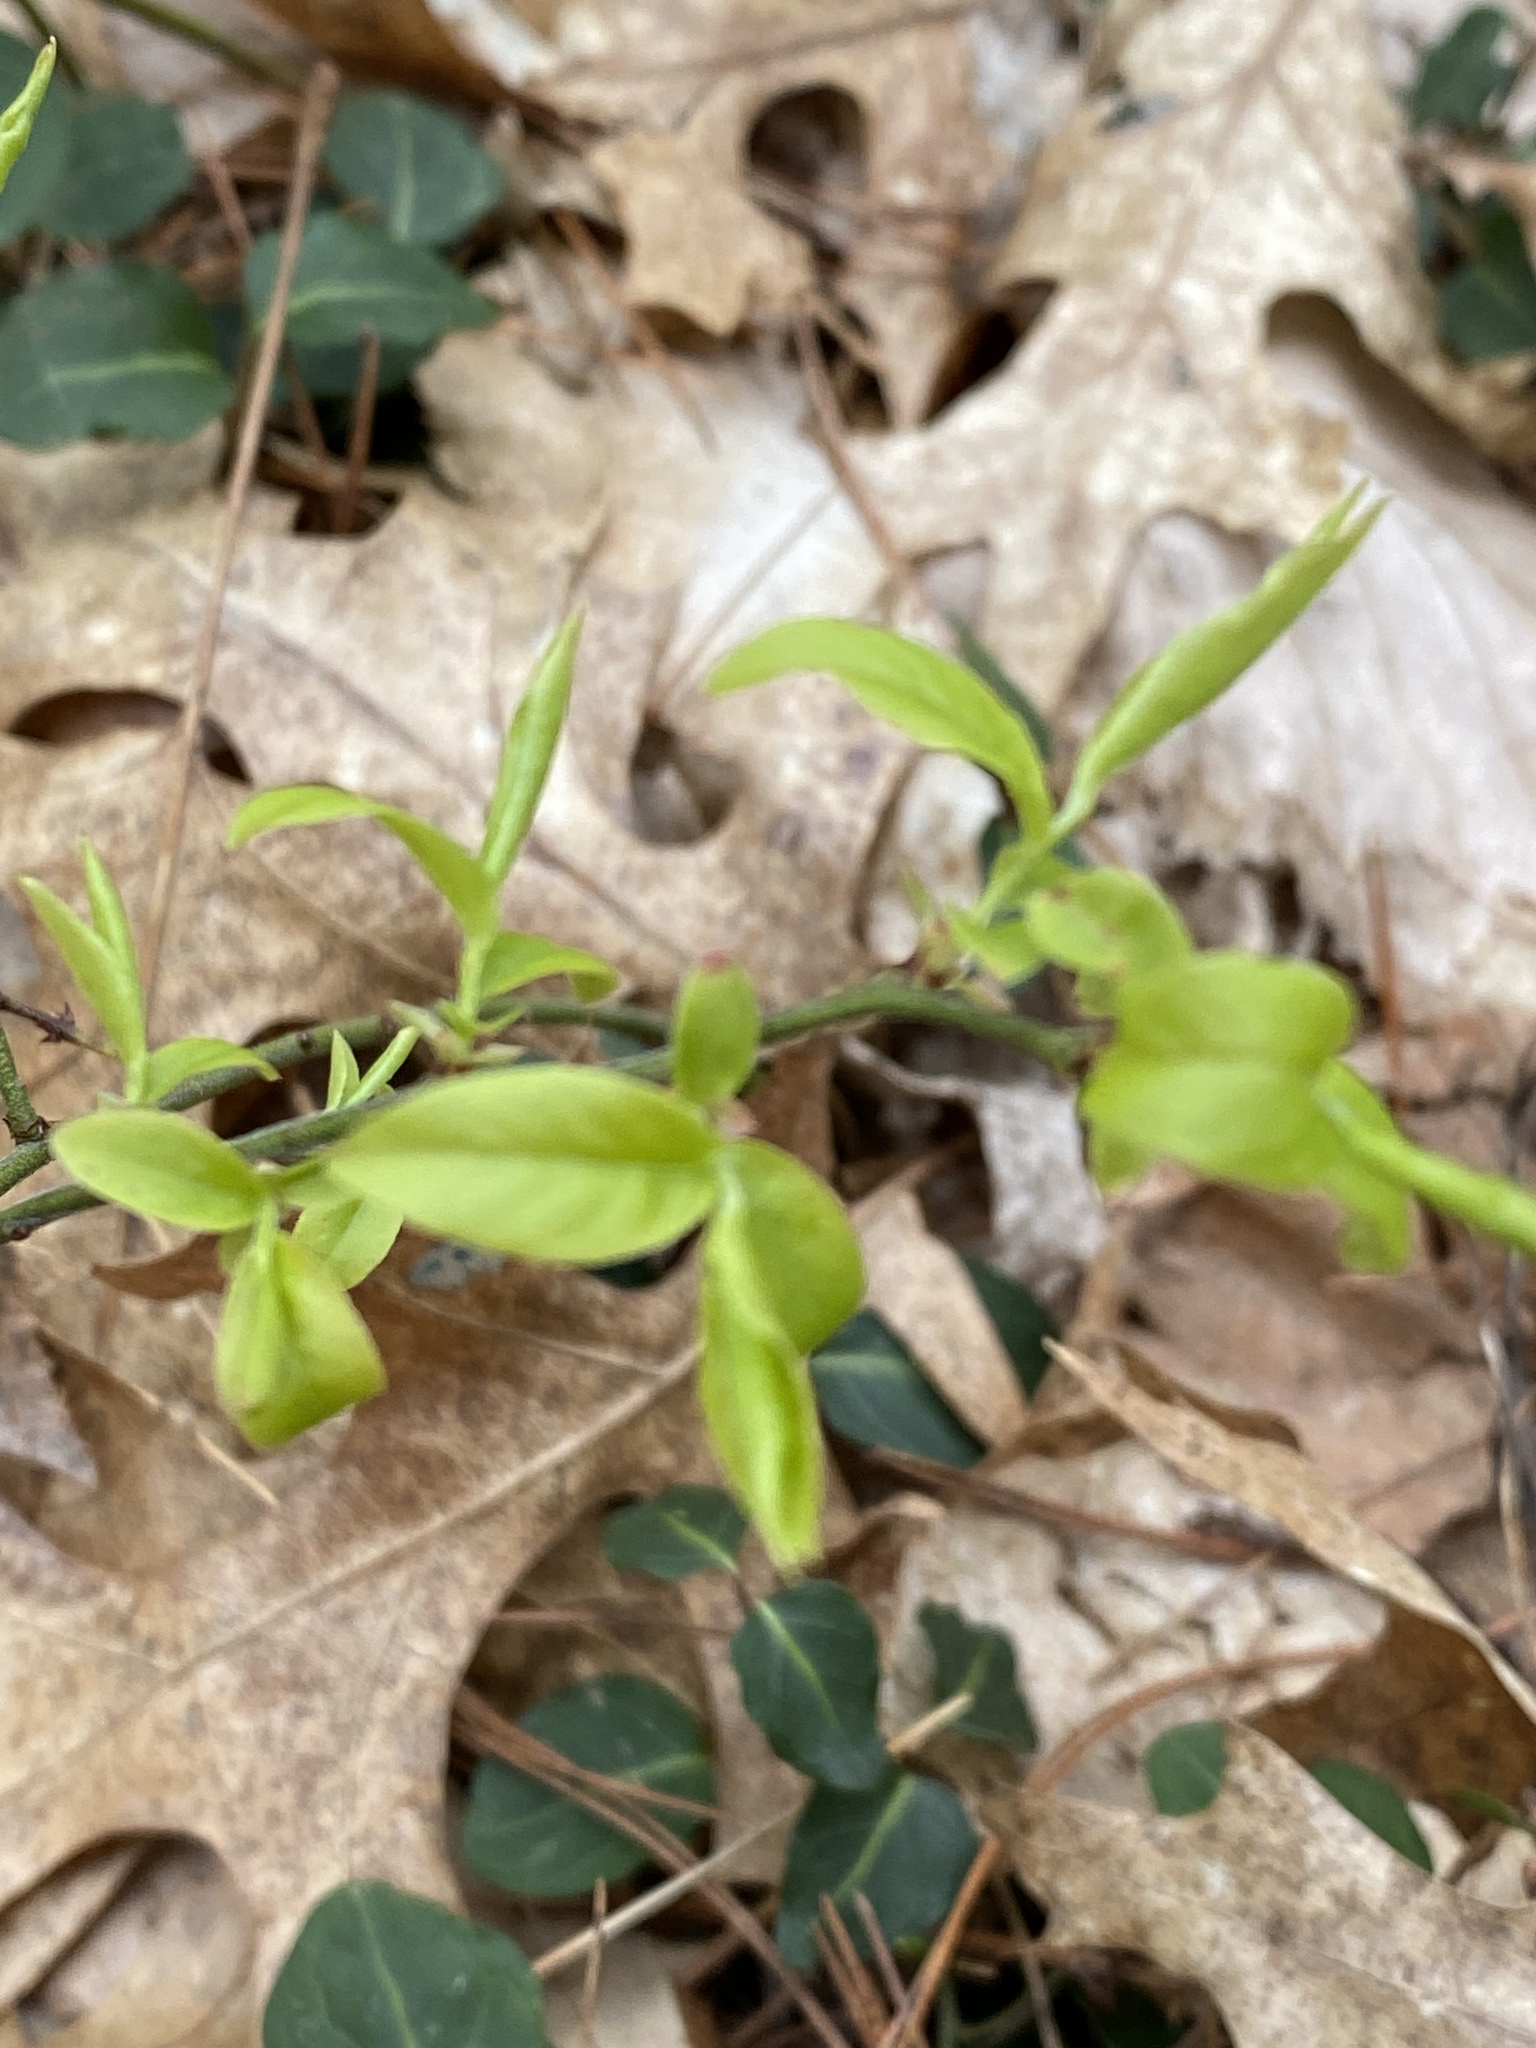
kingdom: Plantae
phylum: Tracheophyta
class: Magnoliopsida
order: Ericales
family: Ericaceae
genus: Vaccinium
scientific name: Vaccinium angustifolium
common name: Early lowbush blueberry
